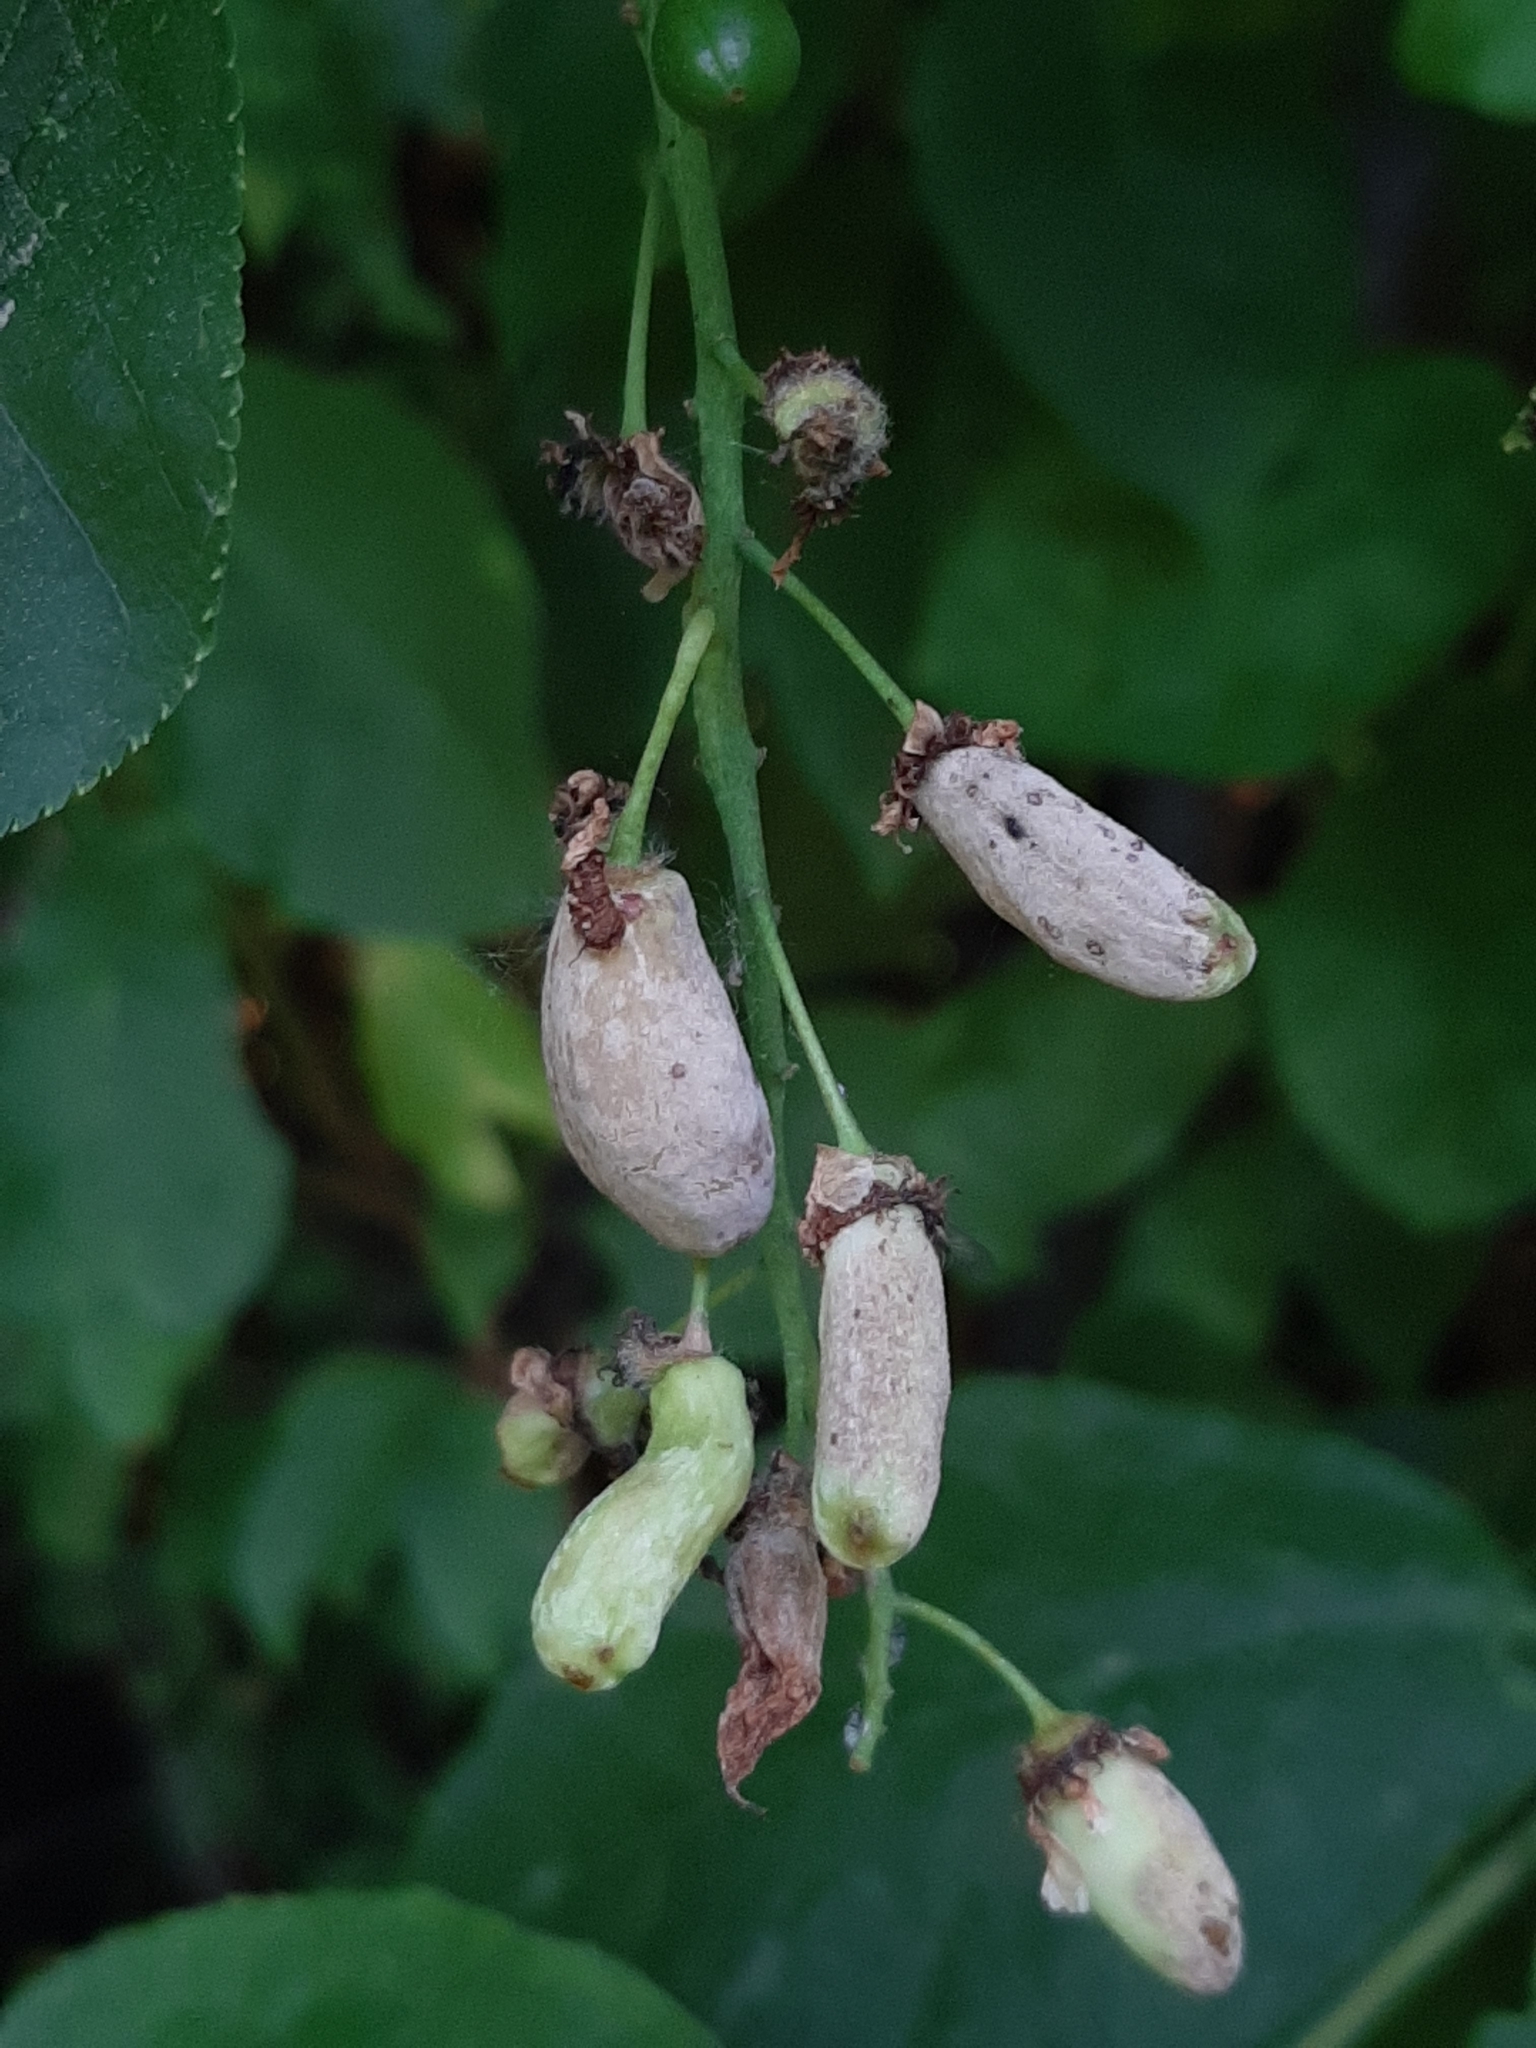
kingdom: Fungi
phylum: Ascomycota
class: Taphrinomycetes
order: Taphrinales
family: Taphrinaceae
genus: Taphrina
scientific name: Taphrina padi
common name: Bird cherry pocket
